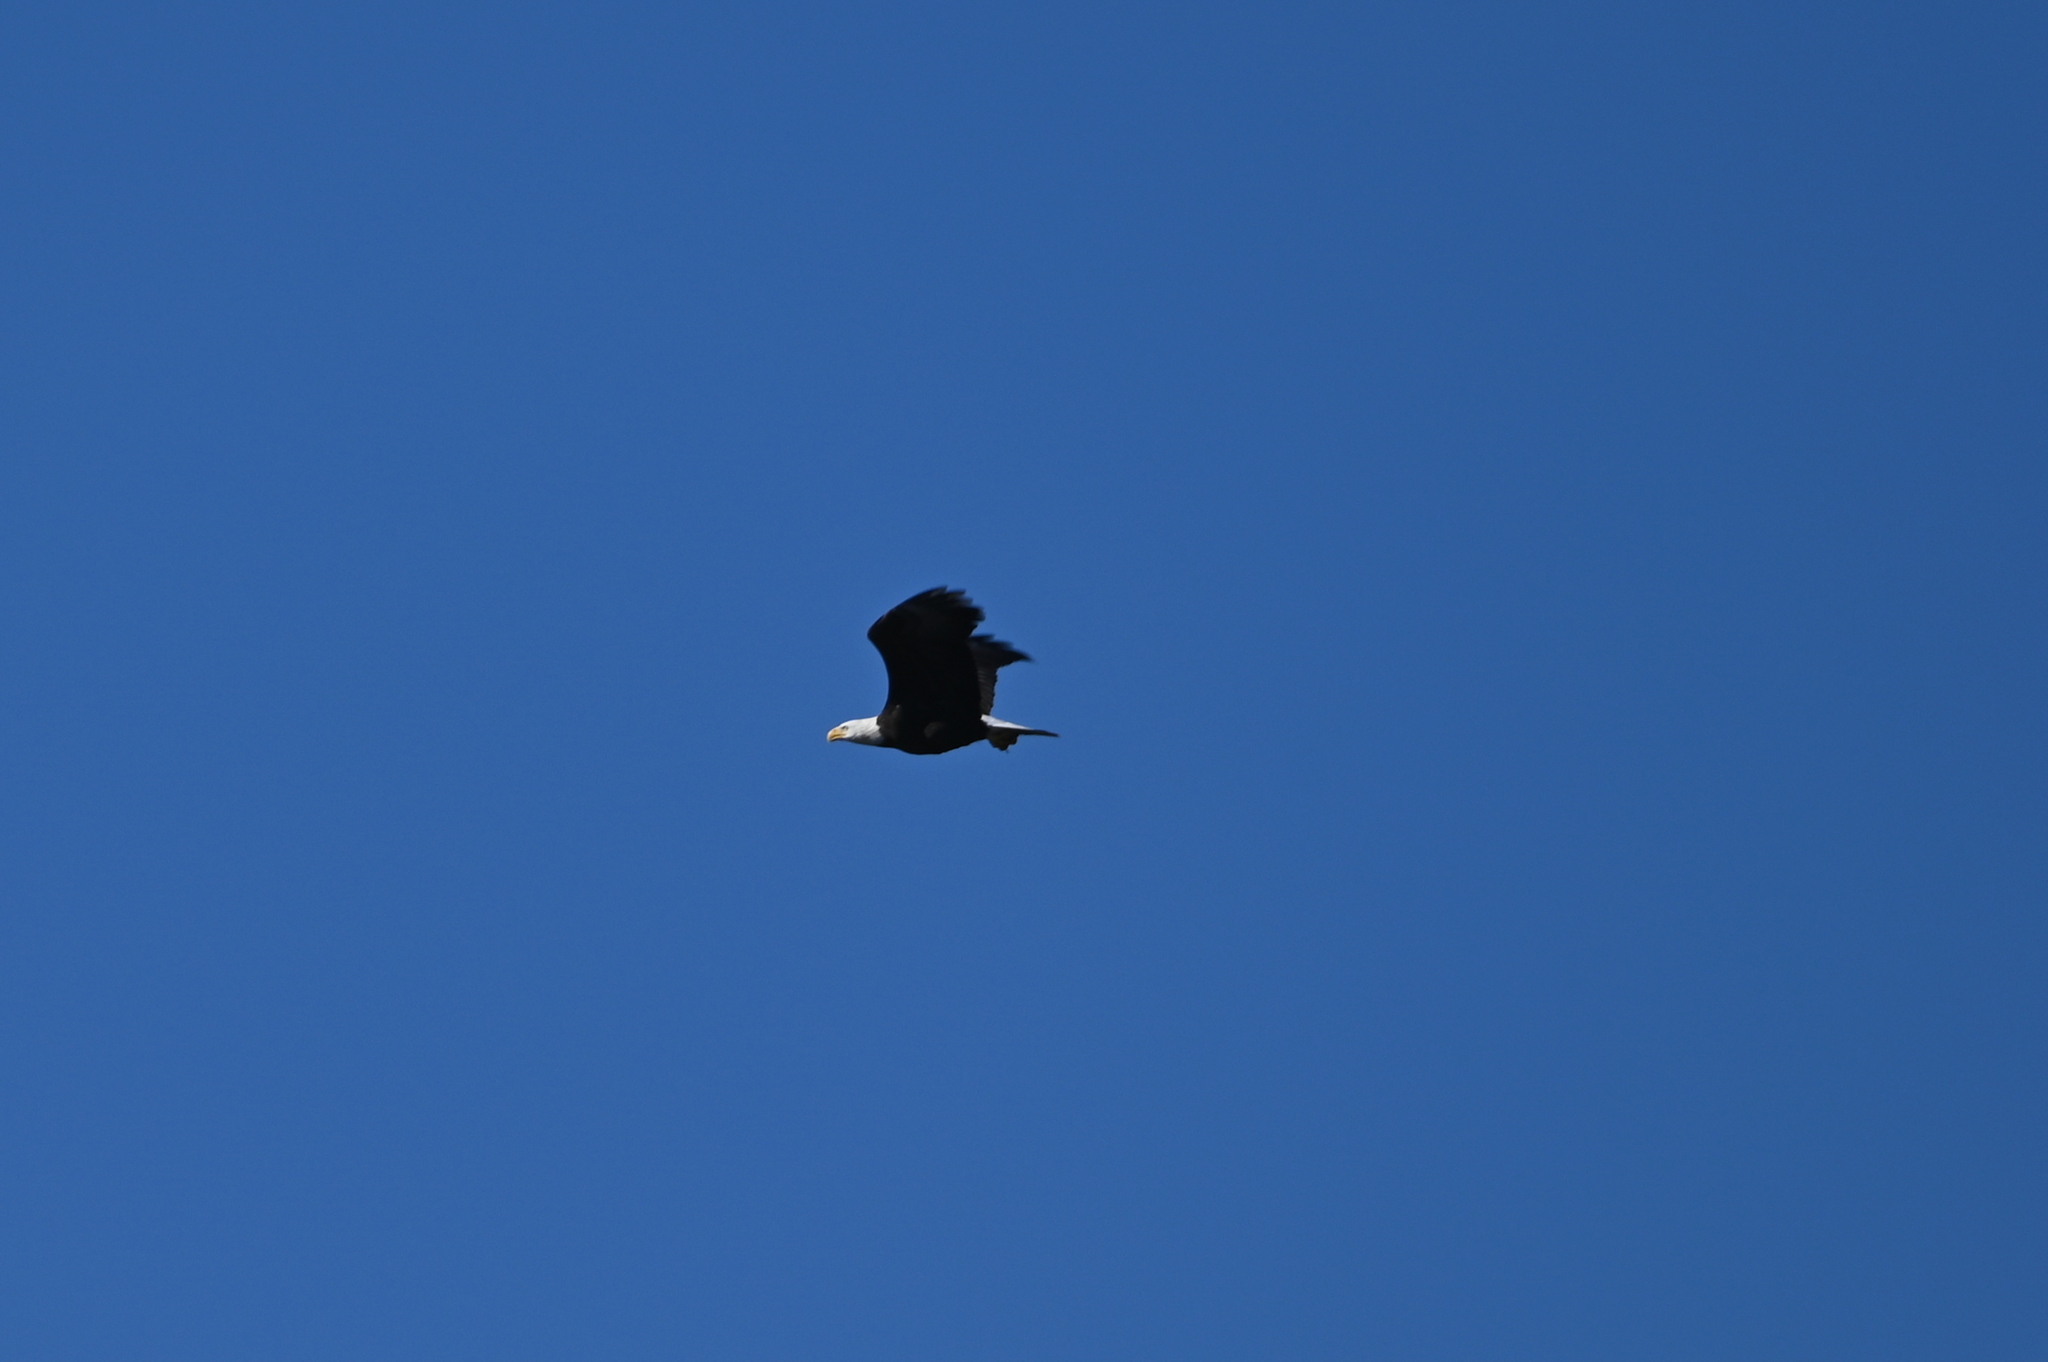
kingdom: Animalia
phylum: Chordata
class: Aves
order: Accipitriformes
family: Accipitridae
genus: Haliaeetus
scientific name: Haliaeetus leucocephalus
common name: Bald eagle
